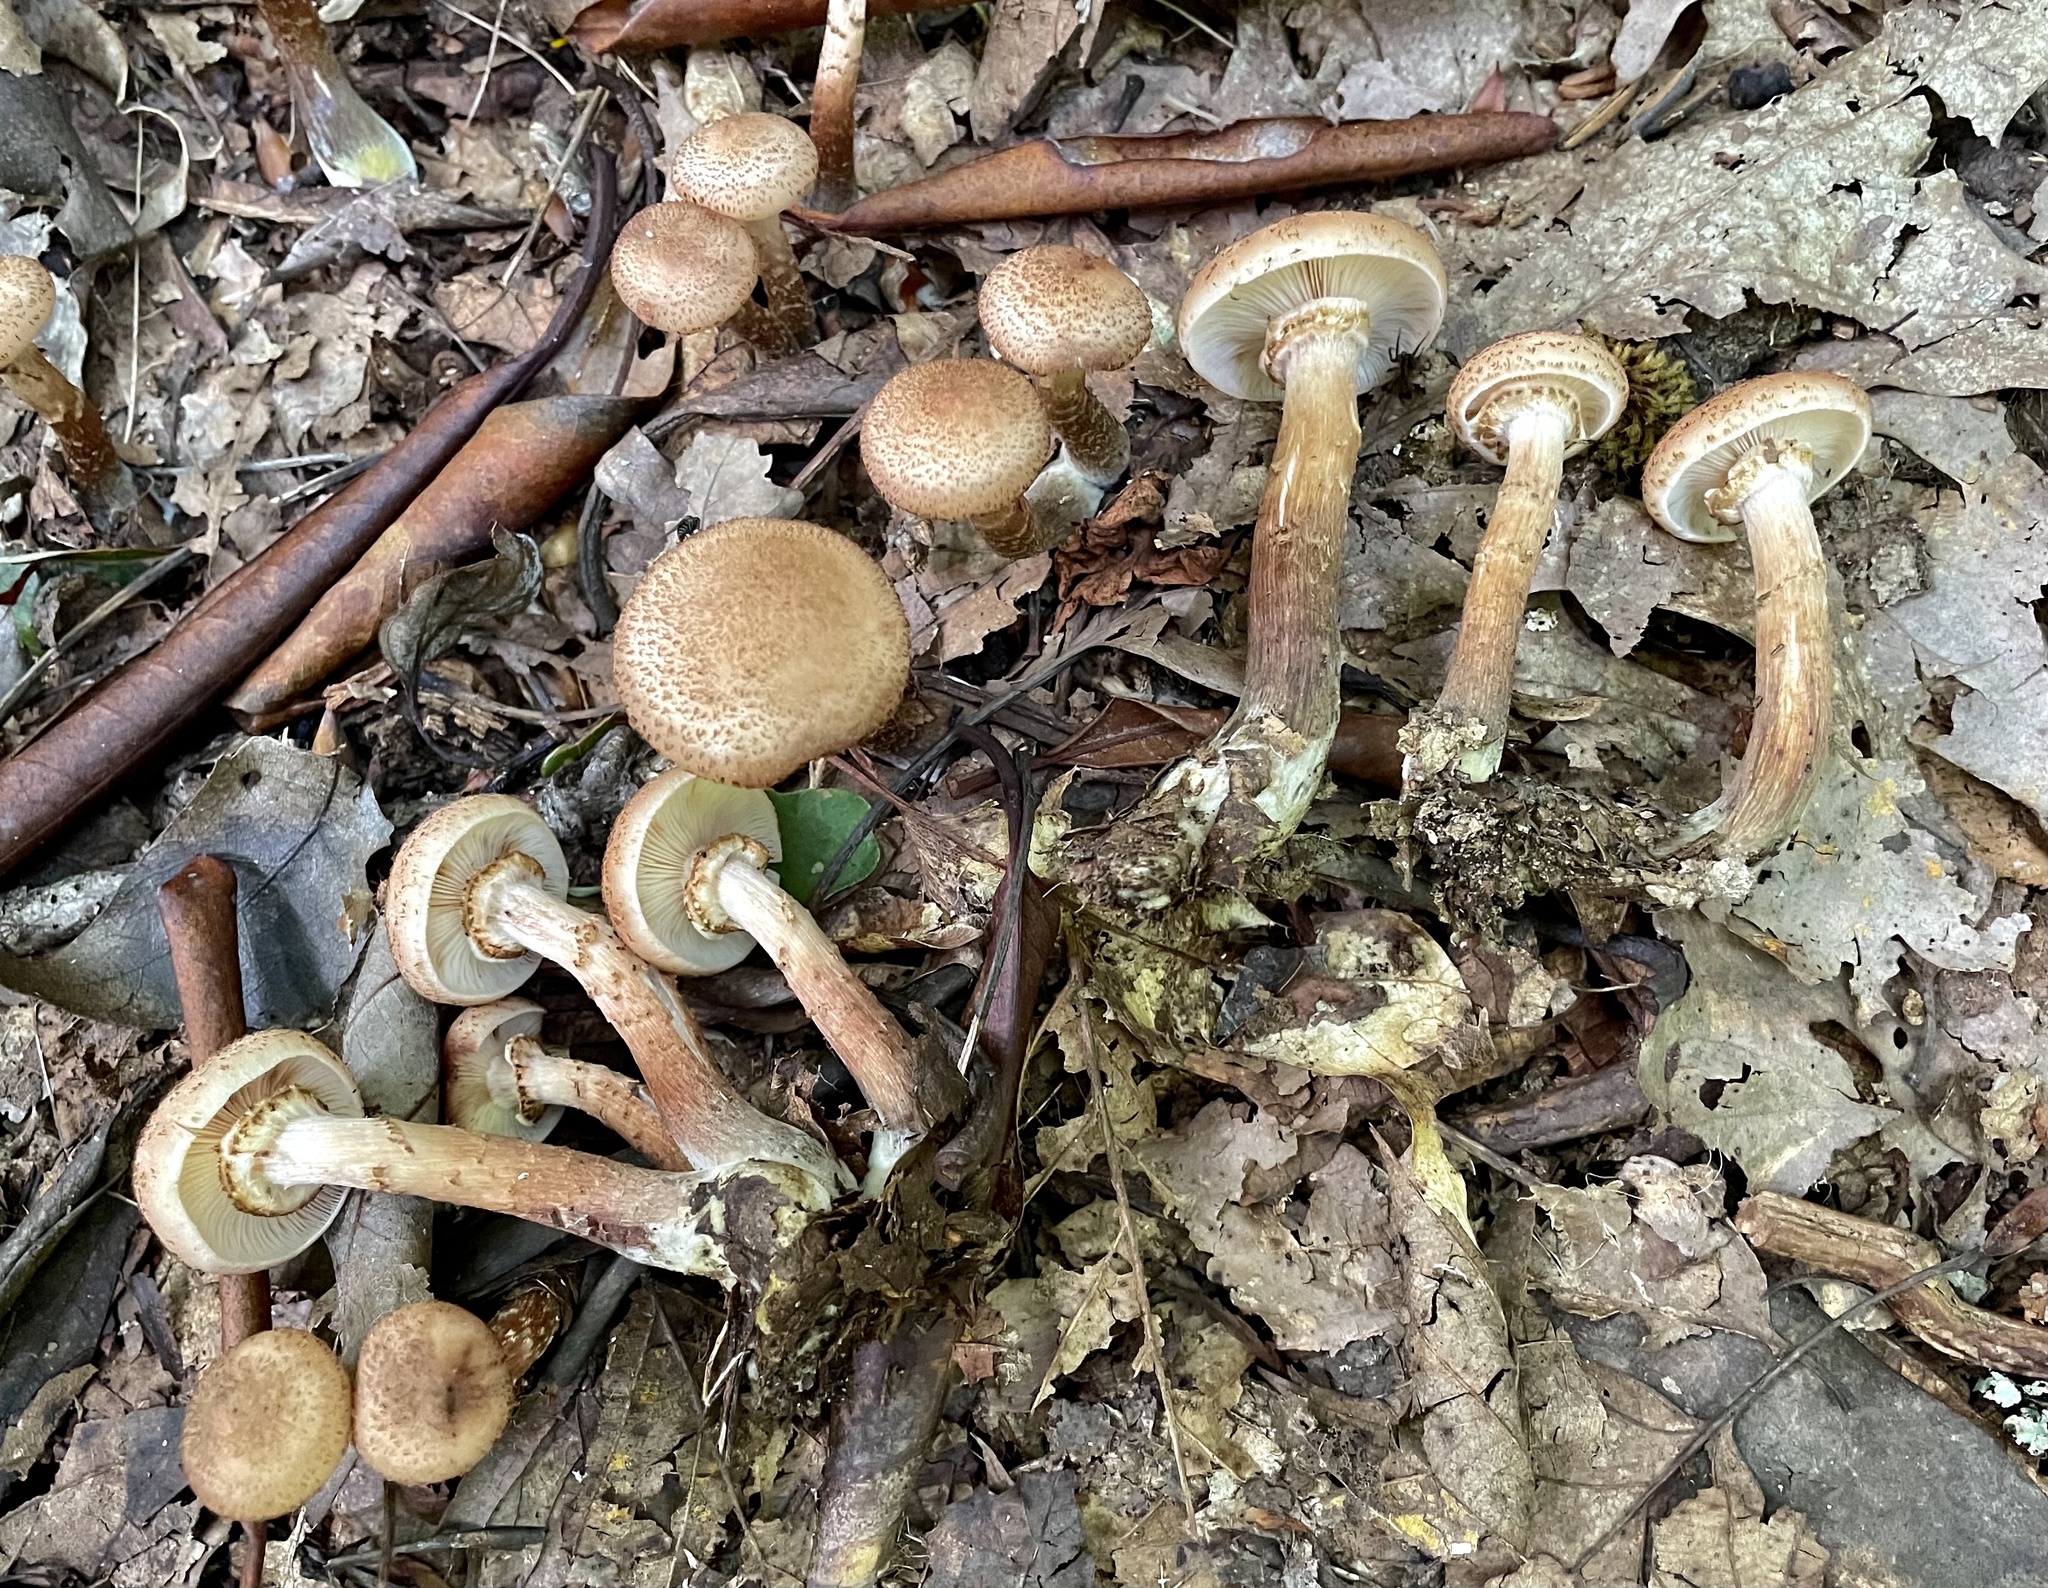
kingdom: Fungi
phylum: Basidiomycota
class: Agaricomycetes
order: Agaricales
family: Physalacriaceae
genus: Armillaria
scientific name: Armillaria gemina
